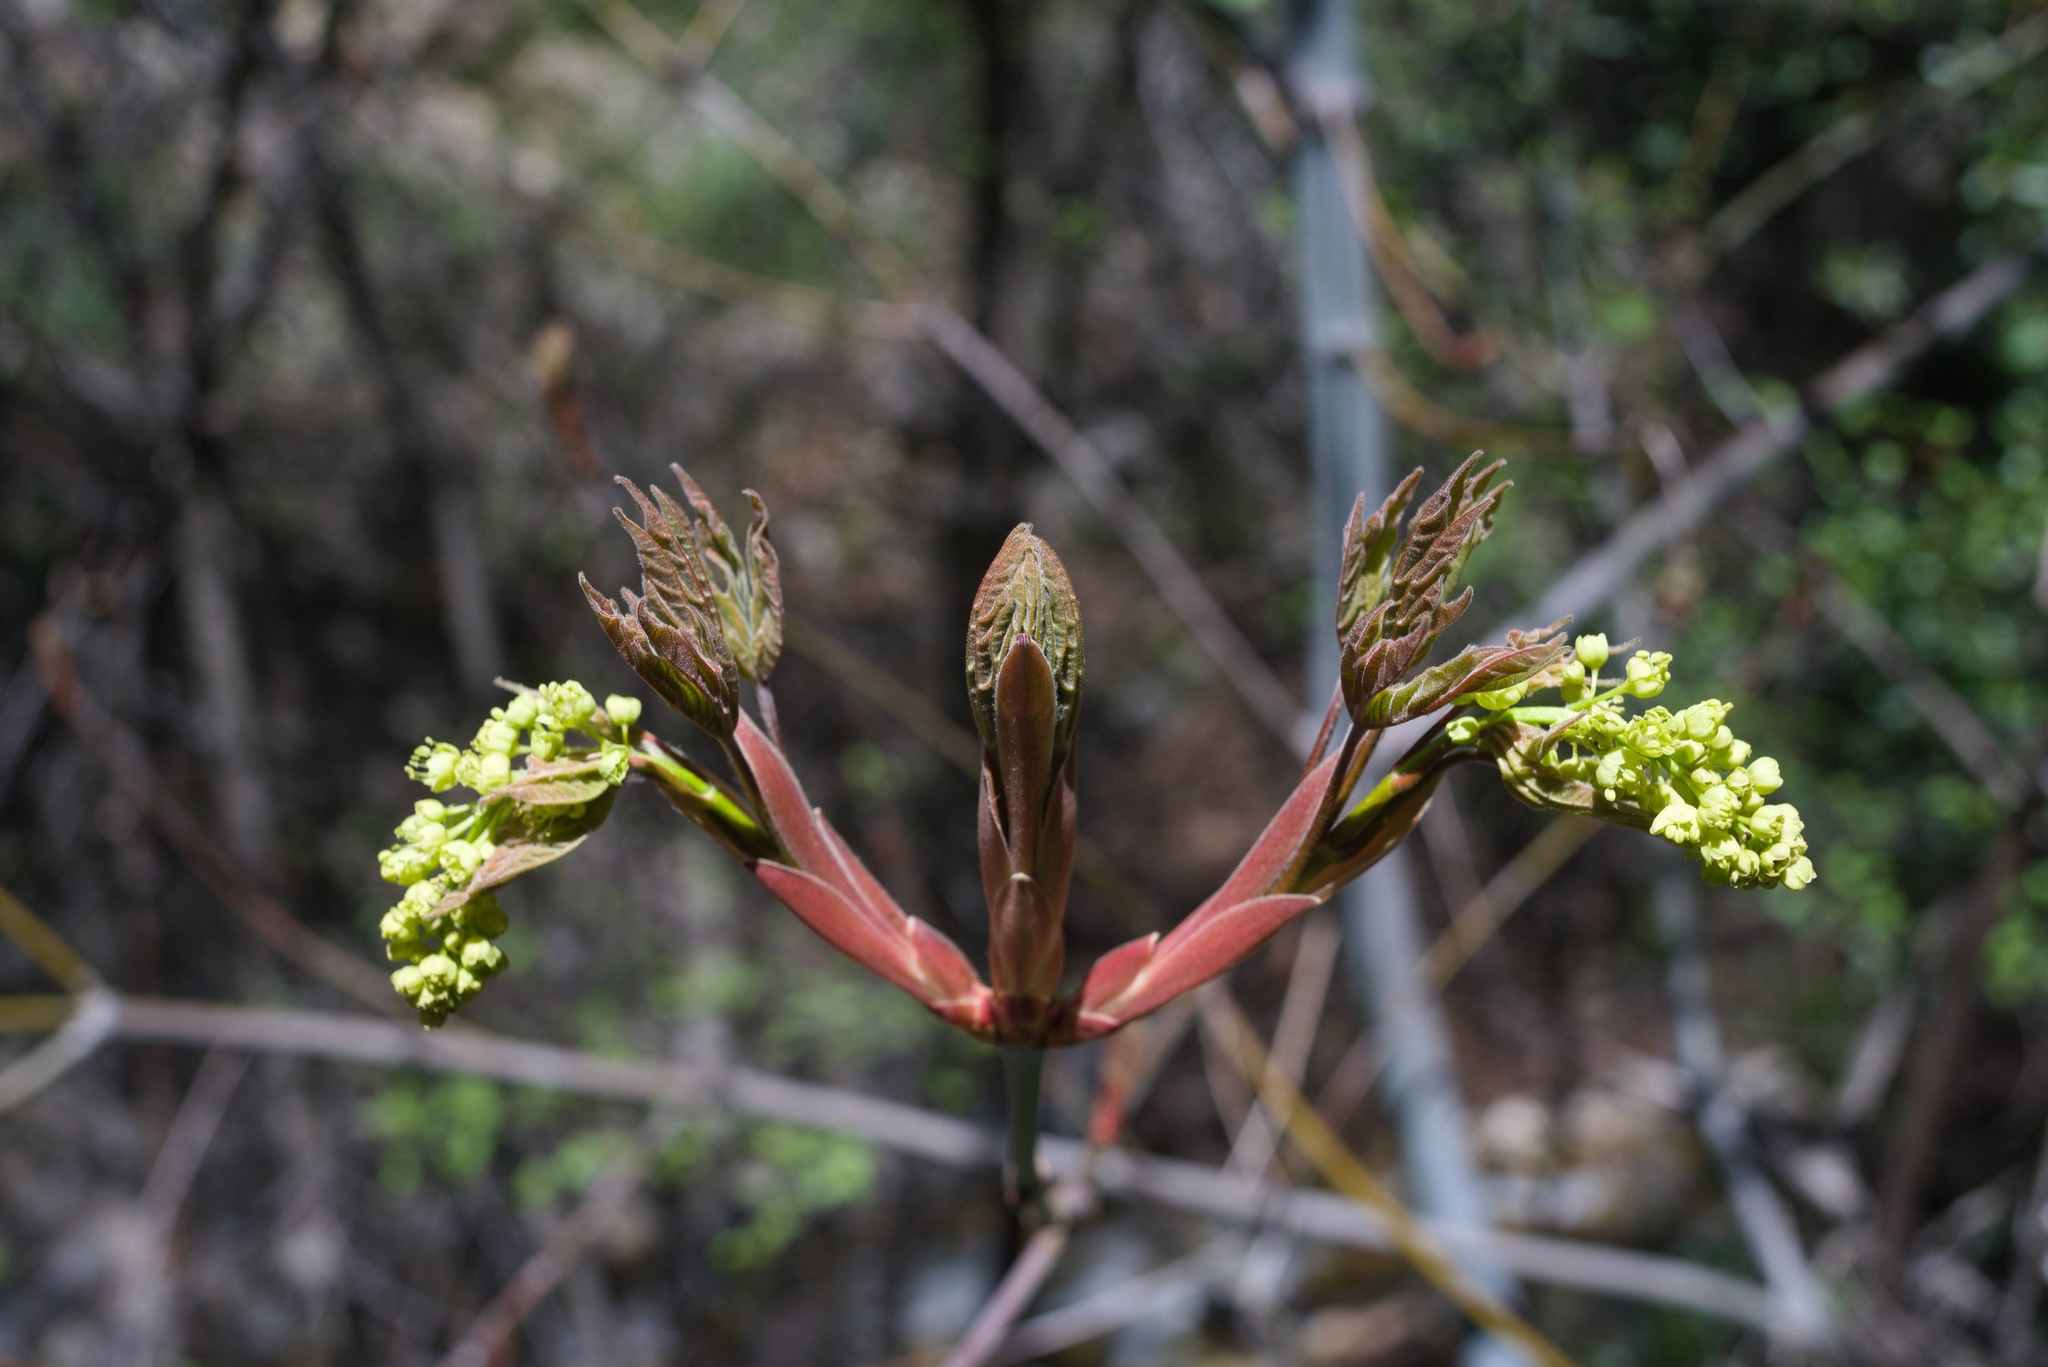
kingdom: Plantae
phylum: Tracheophyta
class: Magnoliopsida
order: Sapindales
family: Sapindaceae
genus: Acer
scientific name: Acer macrophyllum
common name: Oregon maple
